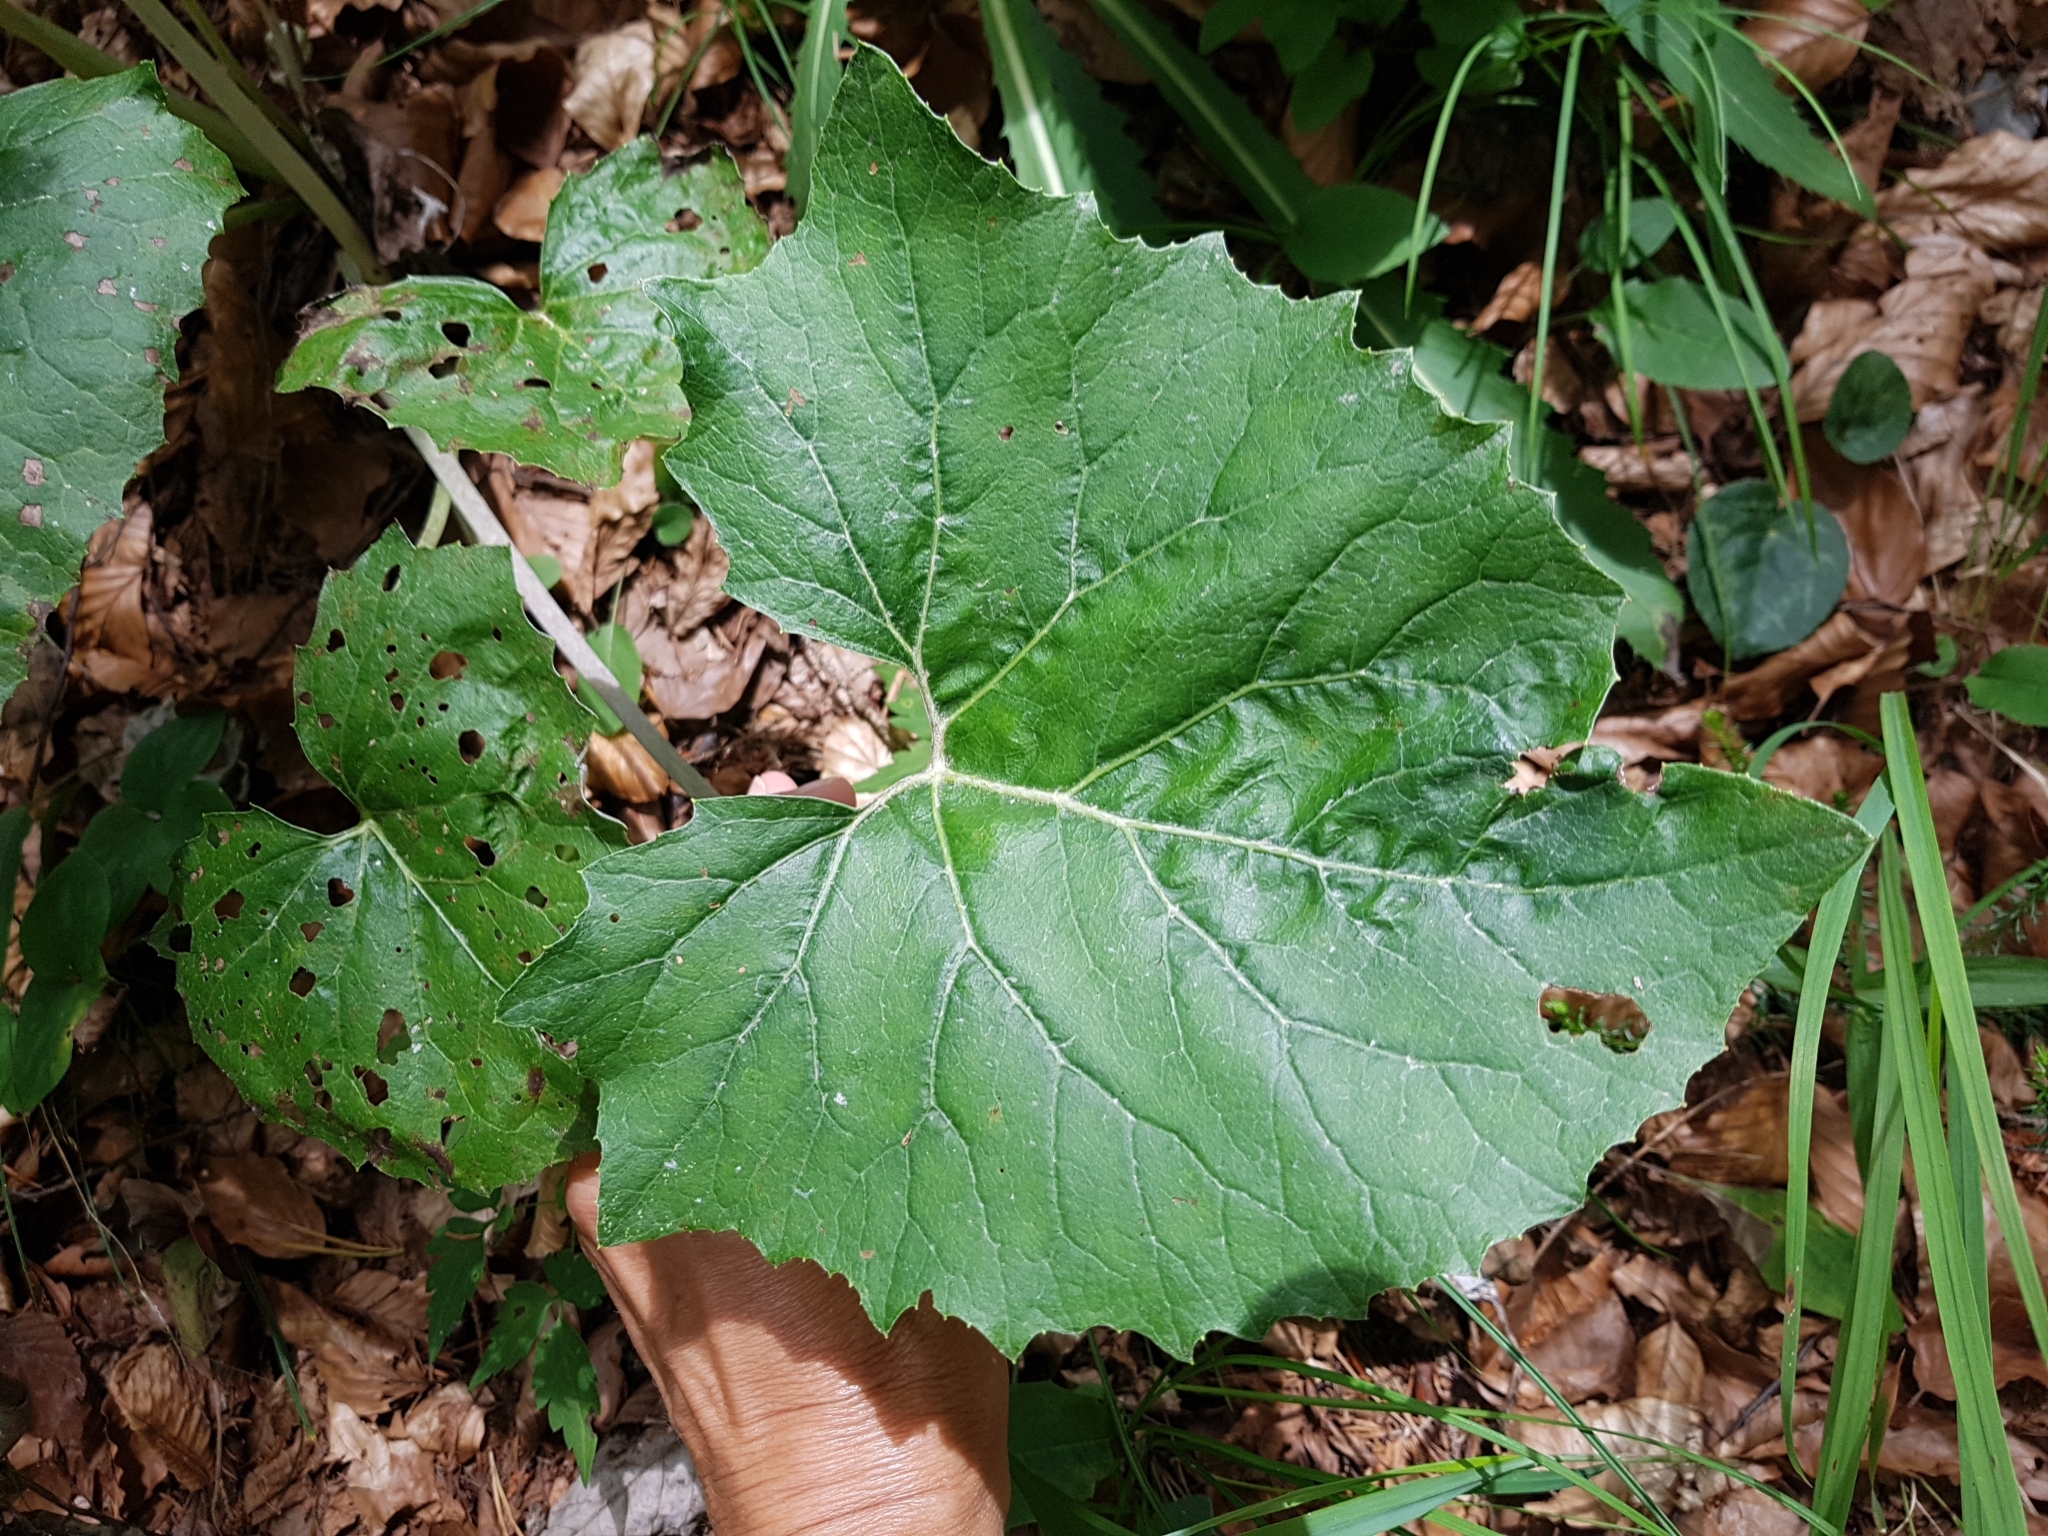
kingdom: Plantae
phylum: Tracheophyta
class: Magnoliopsida
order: Asterales
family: Asteraceae
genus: Petasites
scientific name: Petasites paradoxus
